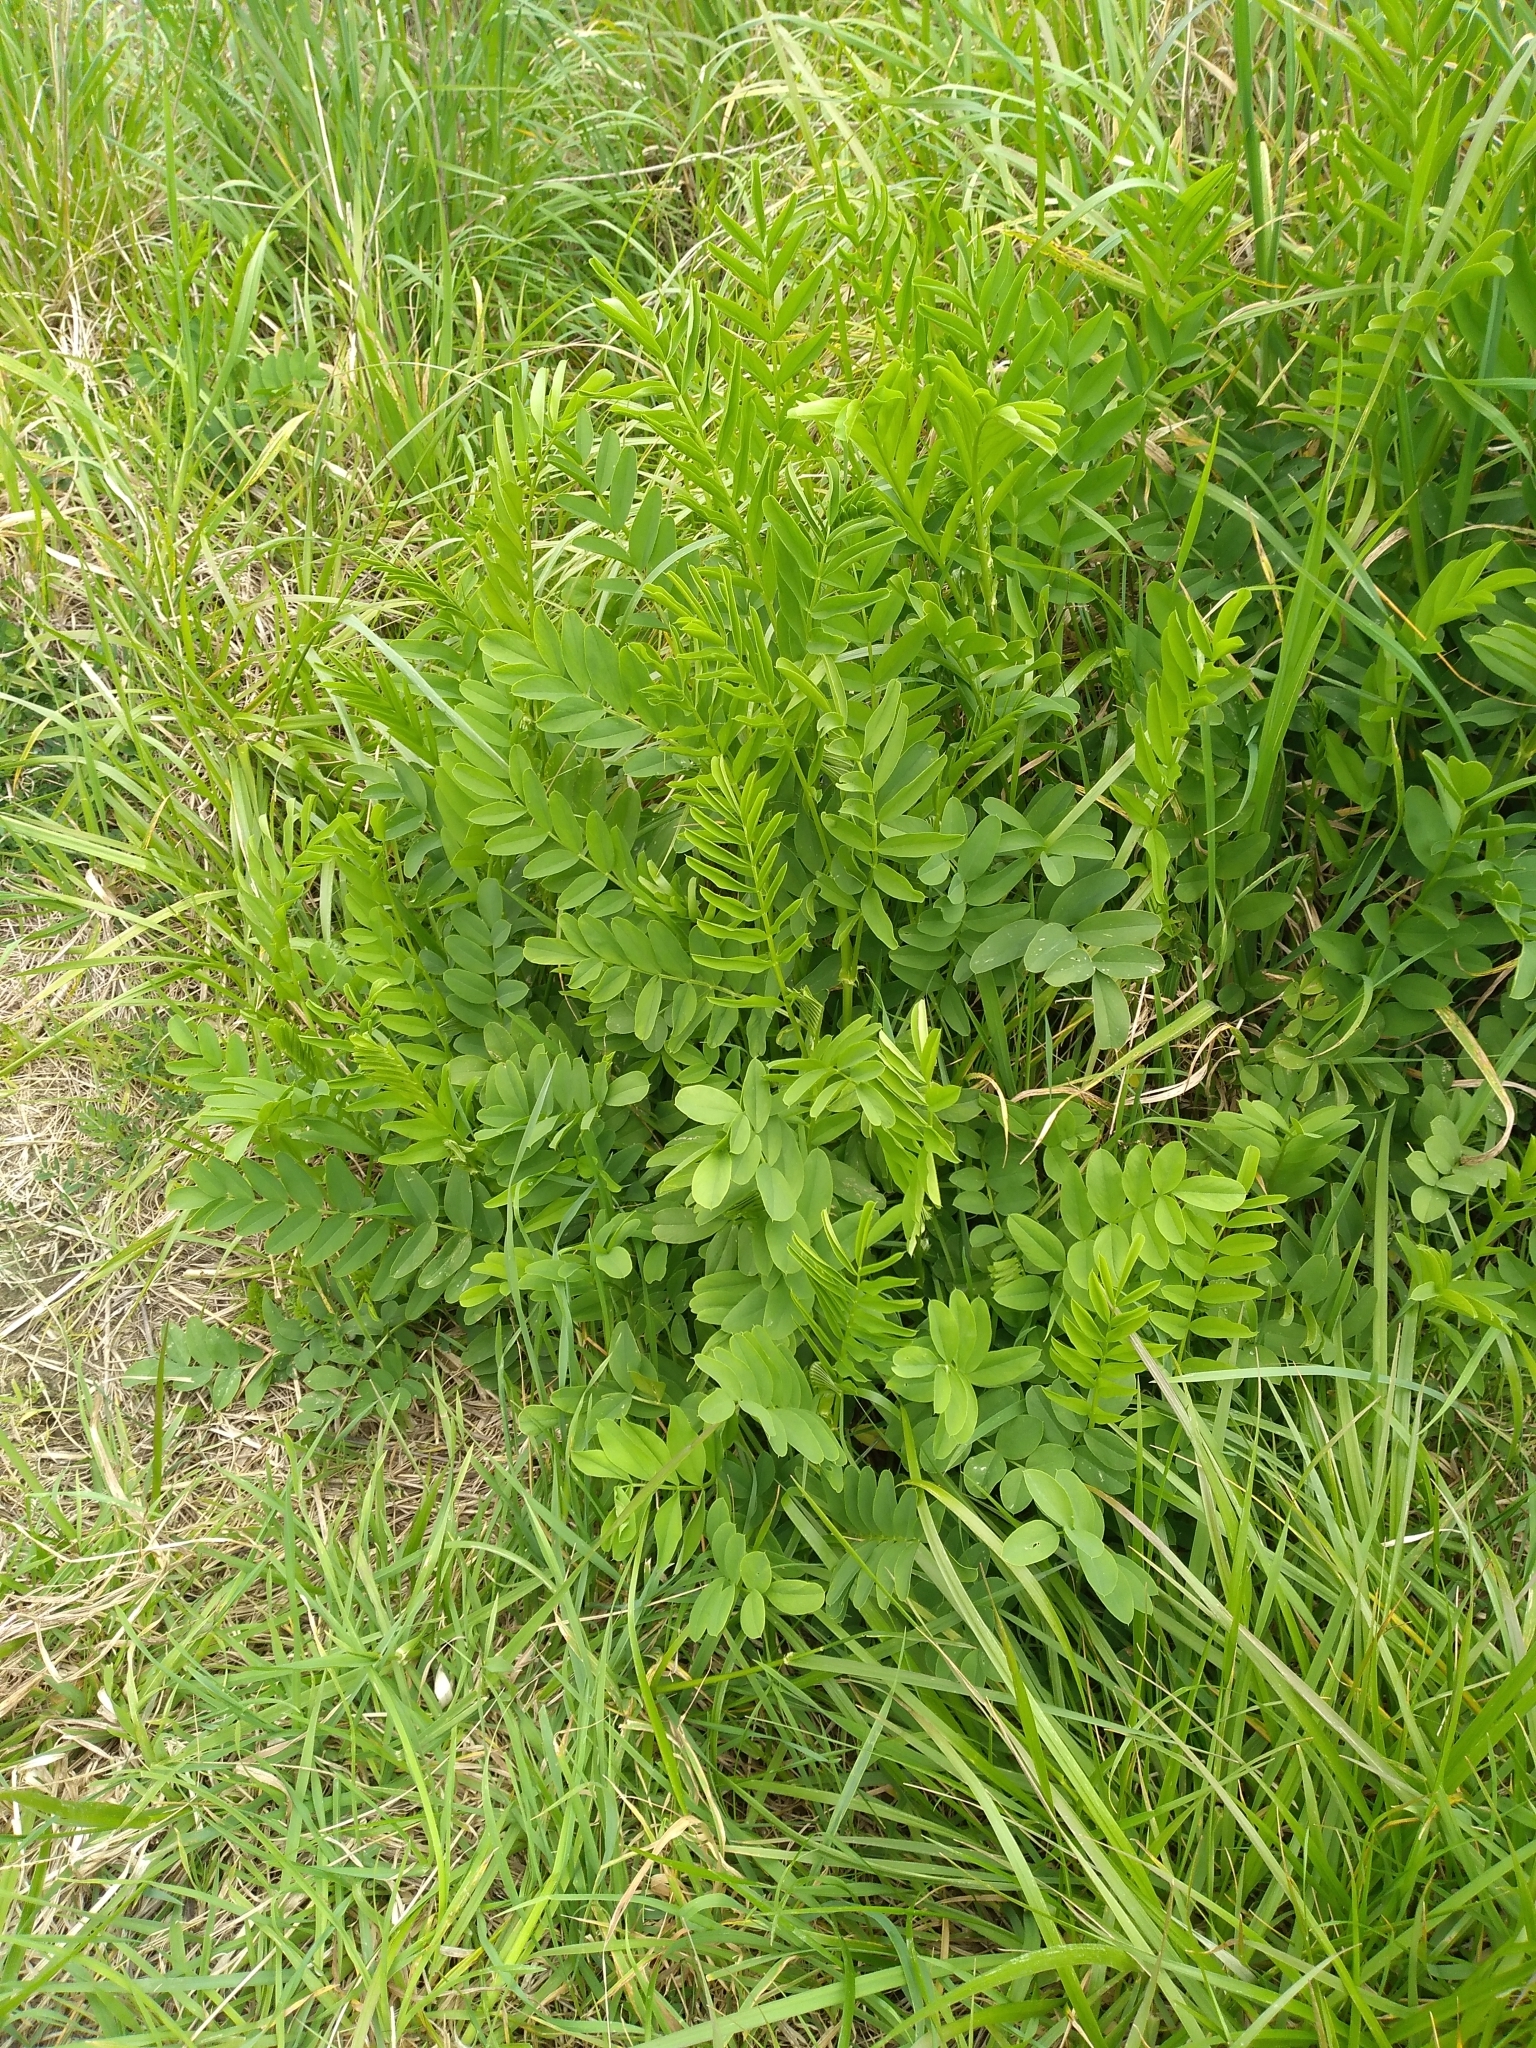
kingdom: Plantae
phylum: Tracheophyta
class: Magnoliopsida
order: Fabales
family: Fabaceae
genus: Galega
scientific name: Galega officinalis
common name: Goat's-rue
